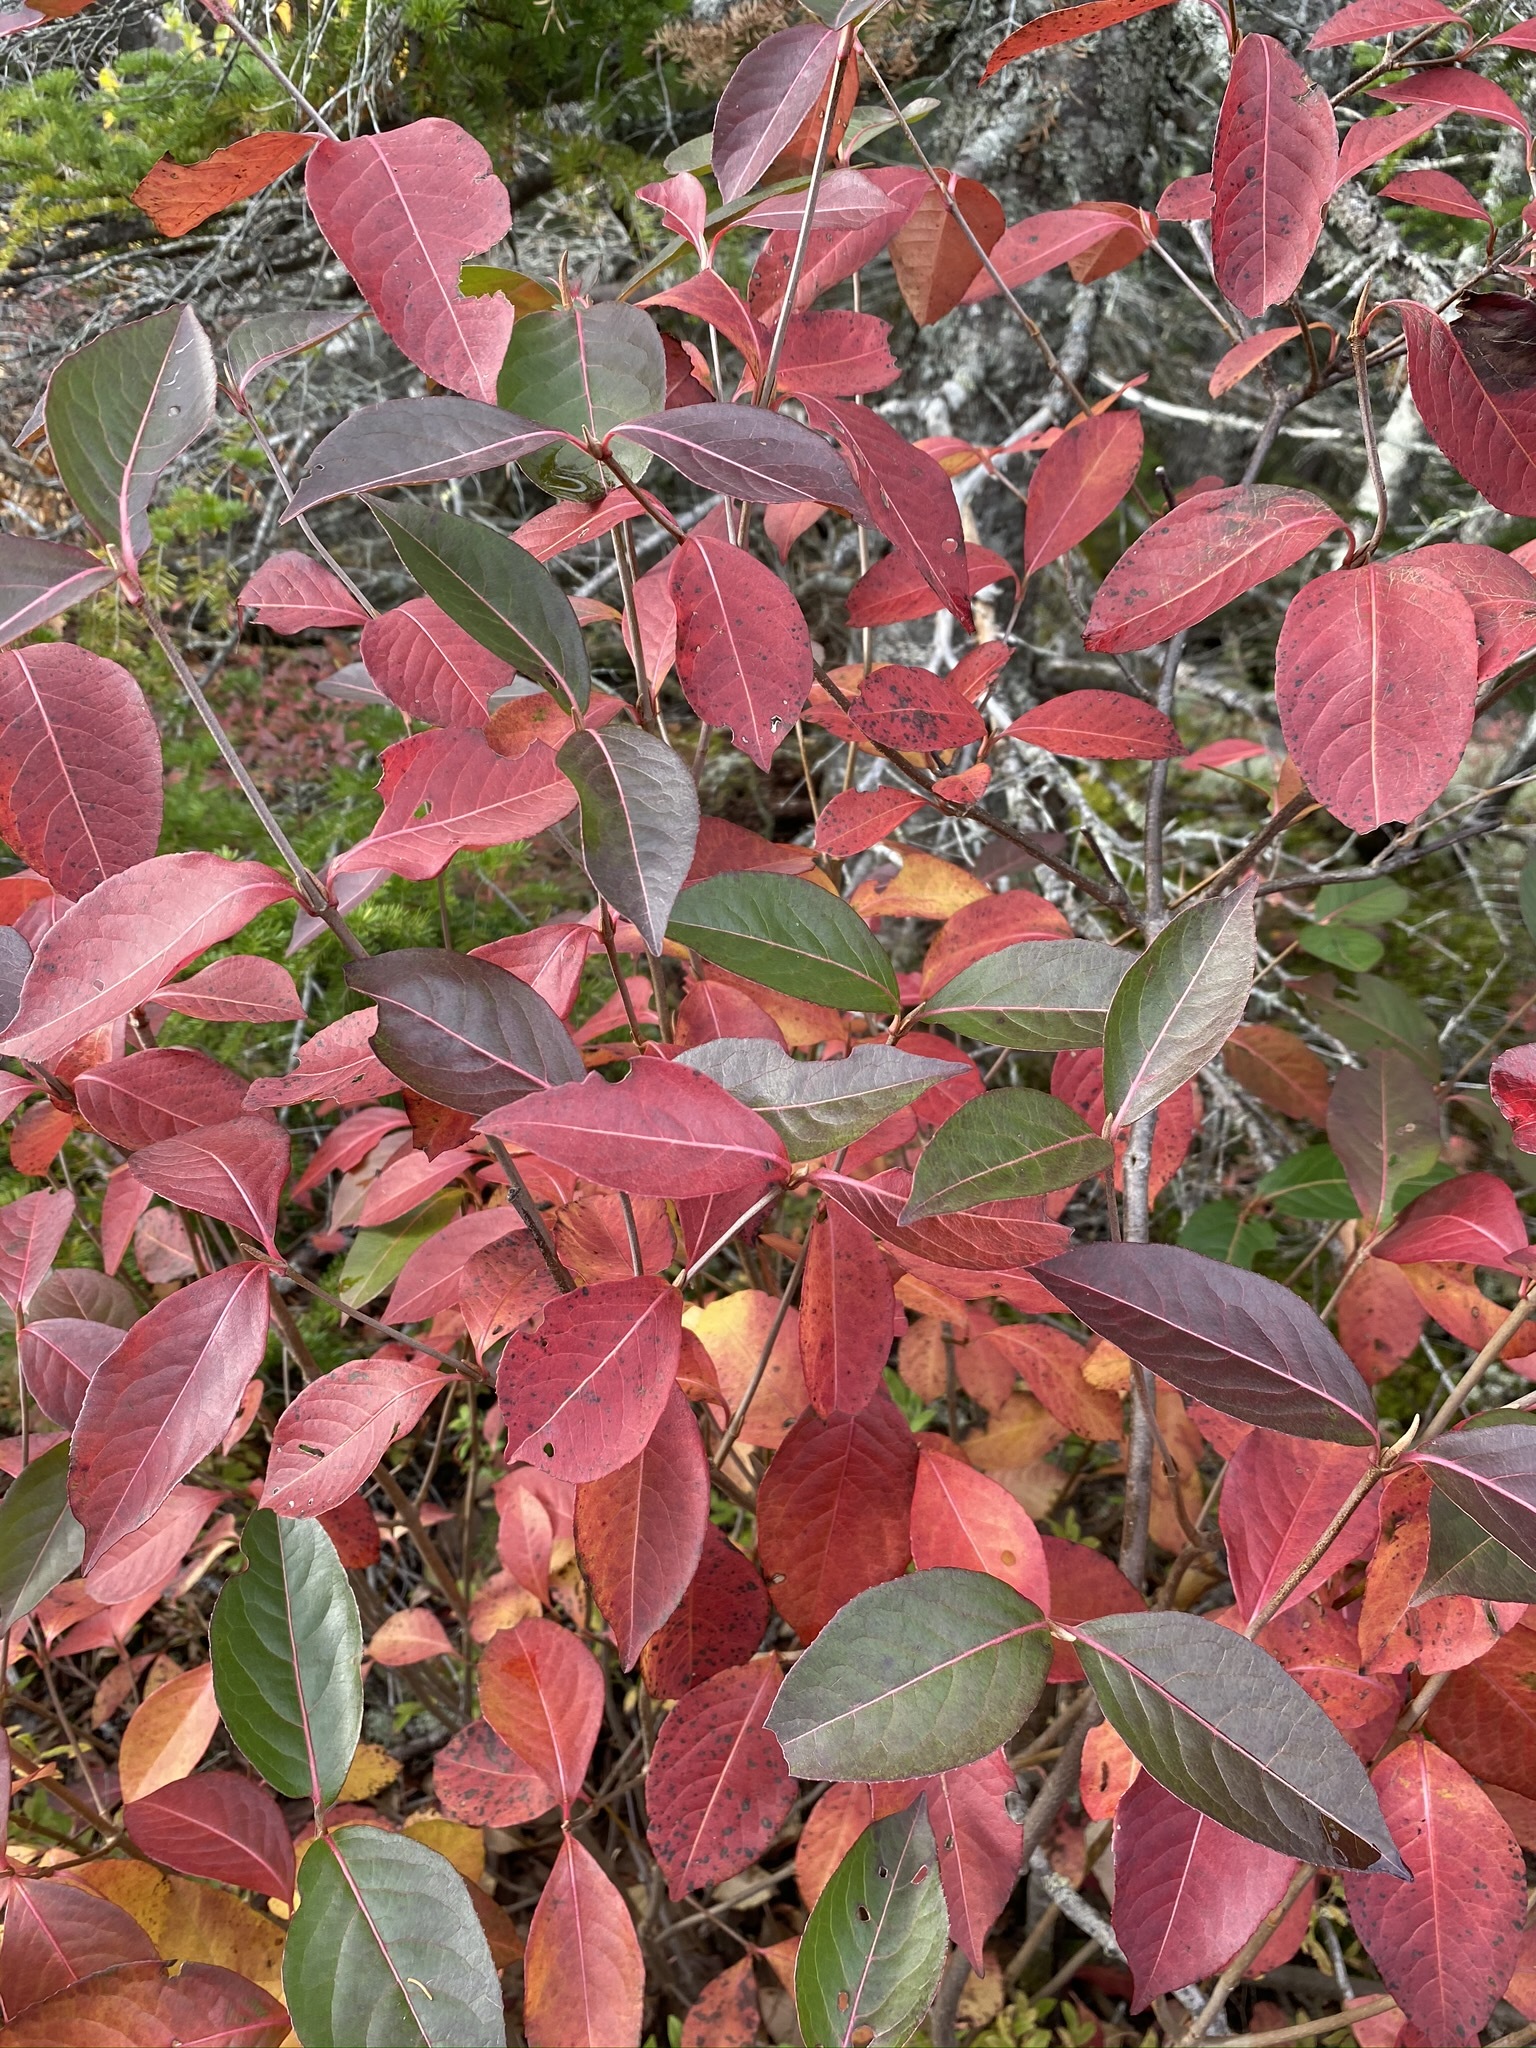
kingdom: Plantae
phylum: Tracheophyta
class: Magnoliopsida
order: Dipsacales
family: Viburnaceae
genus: Viburnum
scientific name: Viburnum cassinoides
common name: Swamp haw
